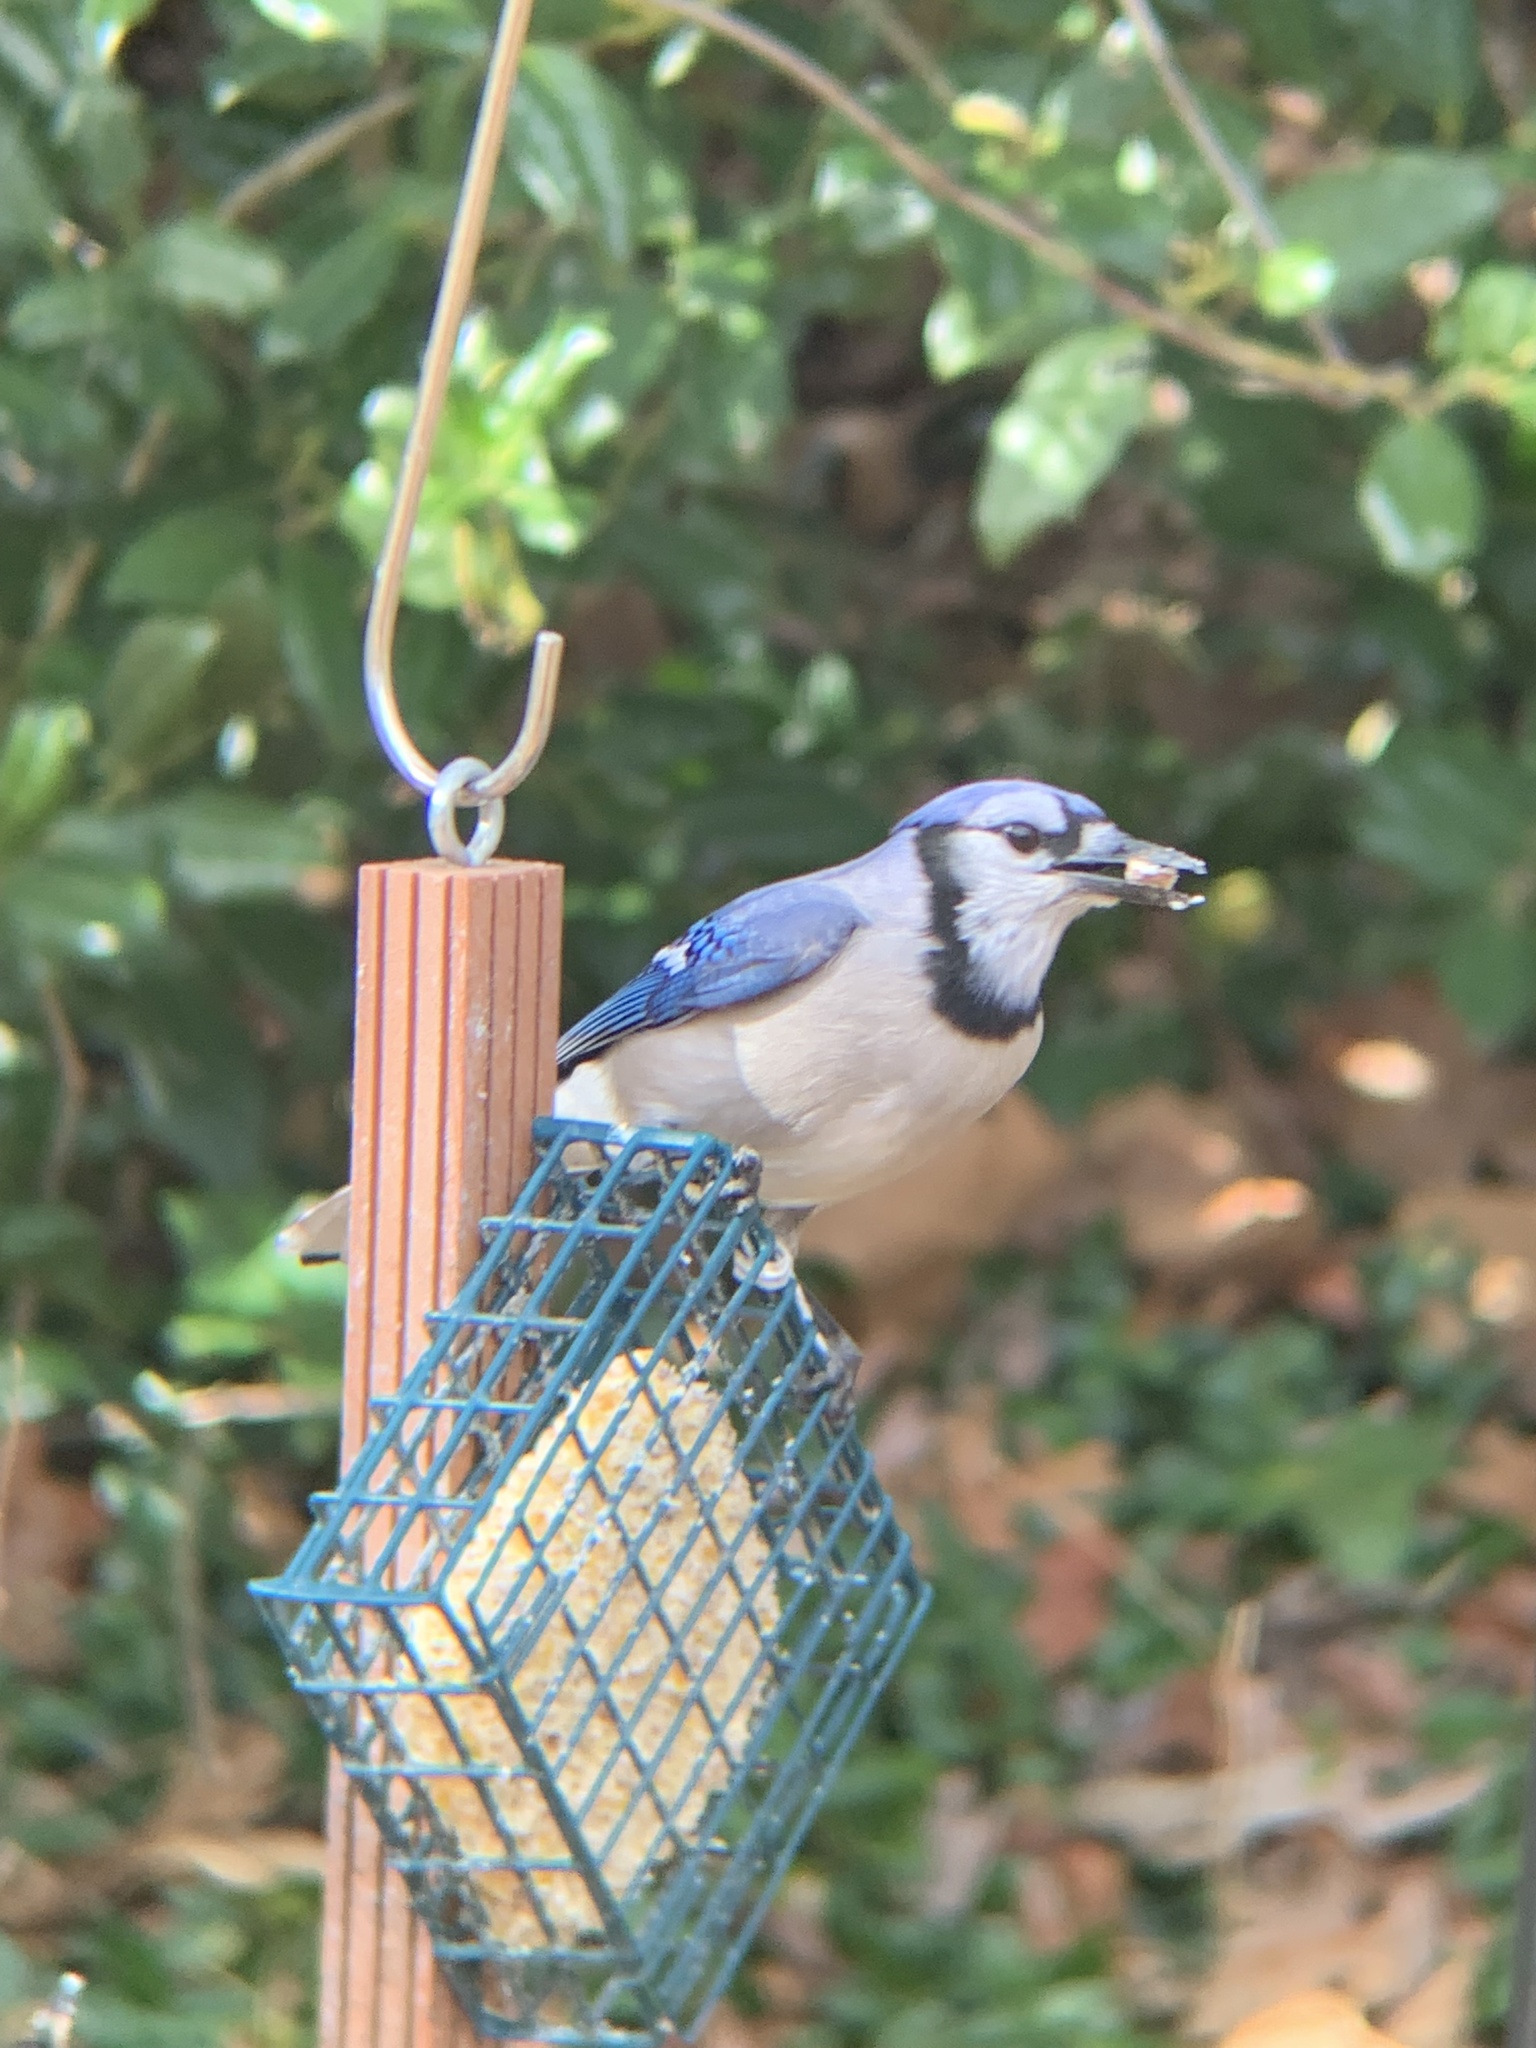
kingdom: Animalia
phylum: Chordata
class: Aves
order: Passeriformes
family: Corvidae
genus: Cyanocitta
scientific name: Cyanocitta cristata
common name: Blue jay
